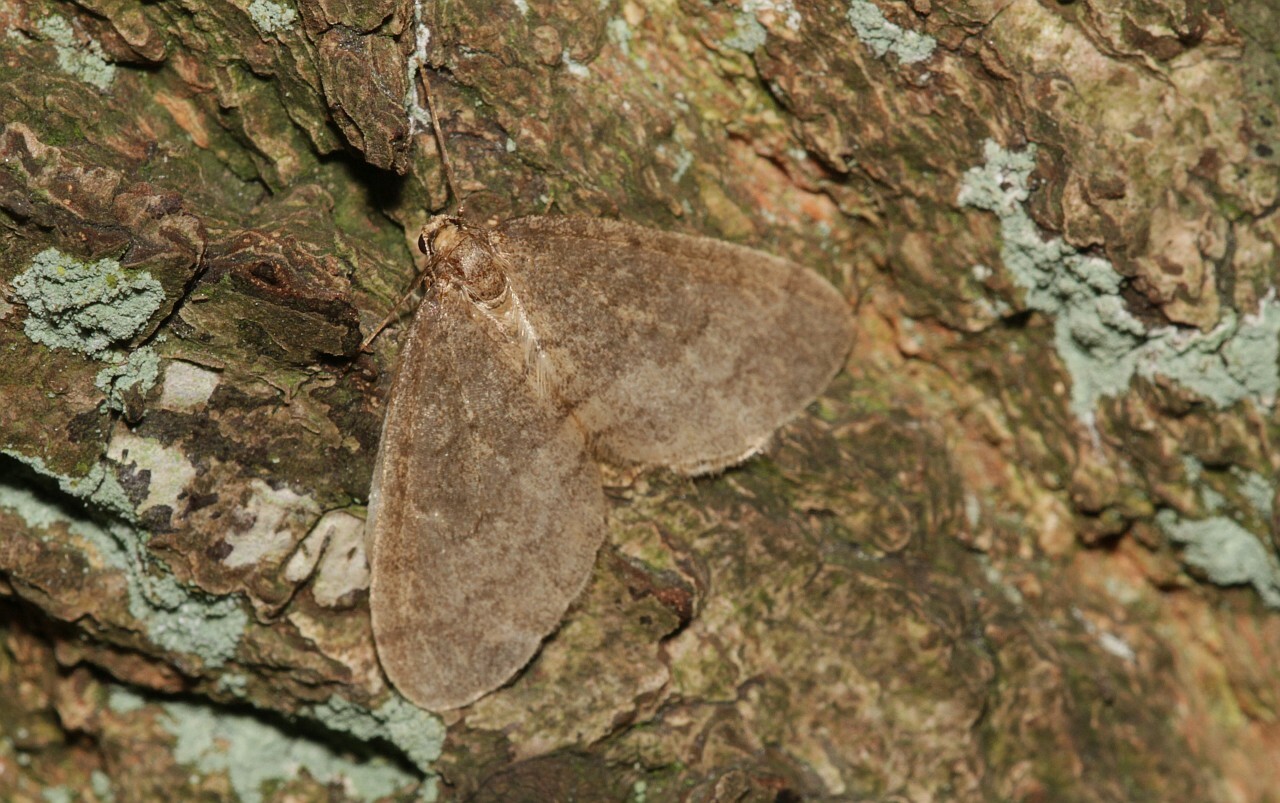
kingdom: Animalia
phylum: Arthropoda
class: Insecta
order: Lepidoptera
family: Geometridae
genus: Operophtera
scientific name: Operophtera brumata
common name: Winter moth
